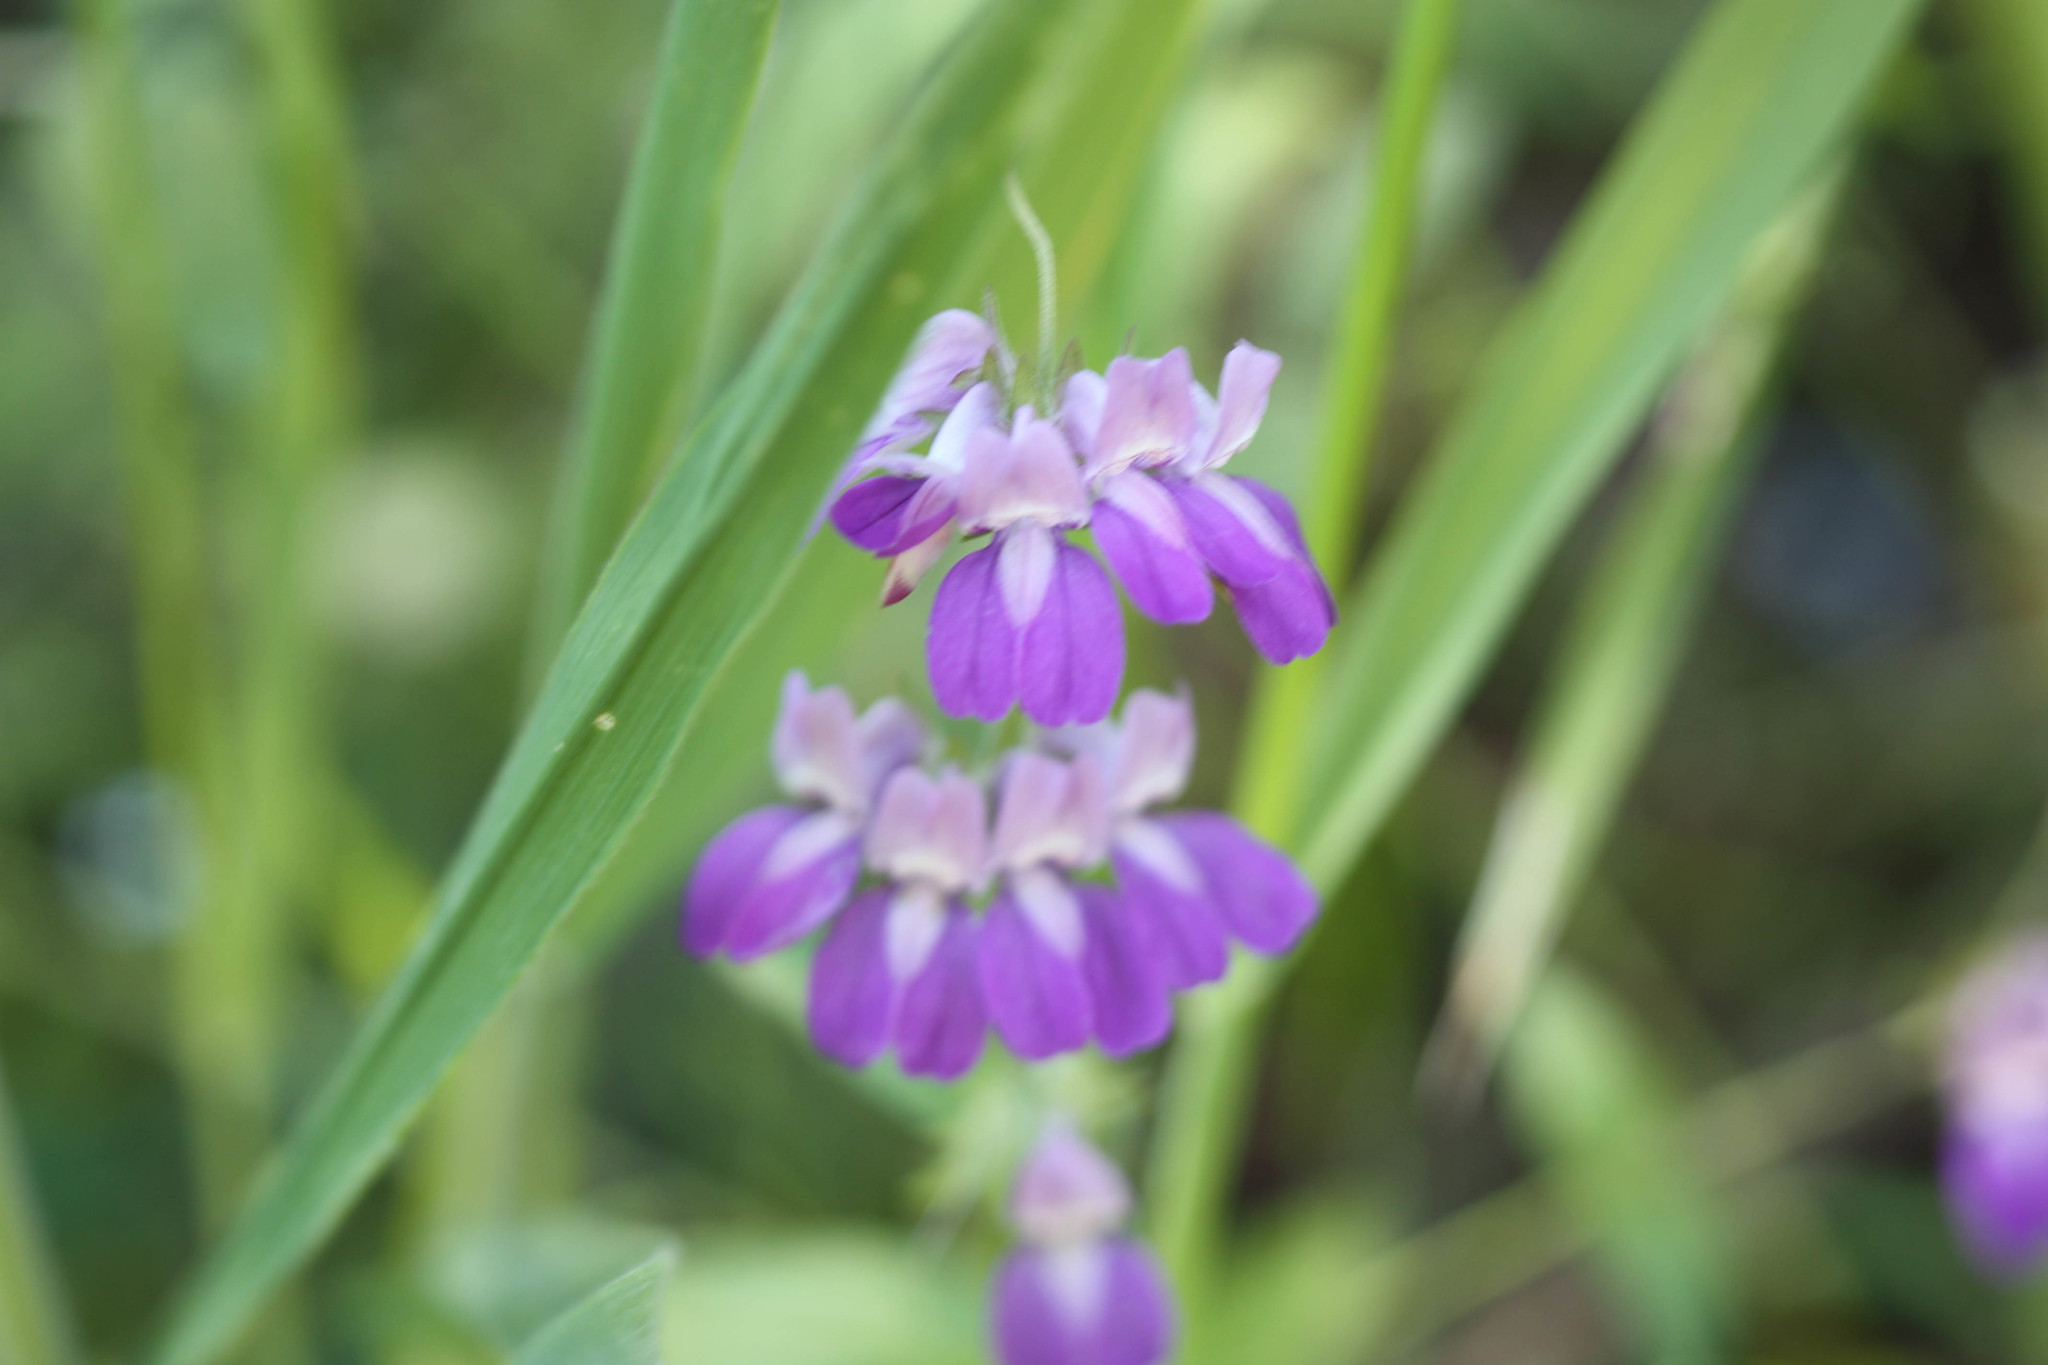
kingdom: Plantae
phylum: Tracheophyta
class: Magnoliopsida
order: Lamiales
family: Plantaginaceae
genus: Collinsia
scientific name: Collinsia heterophylla
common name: Chinese-houses
